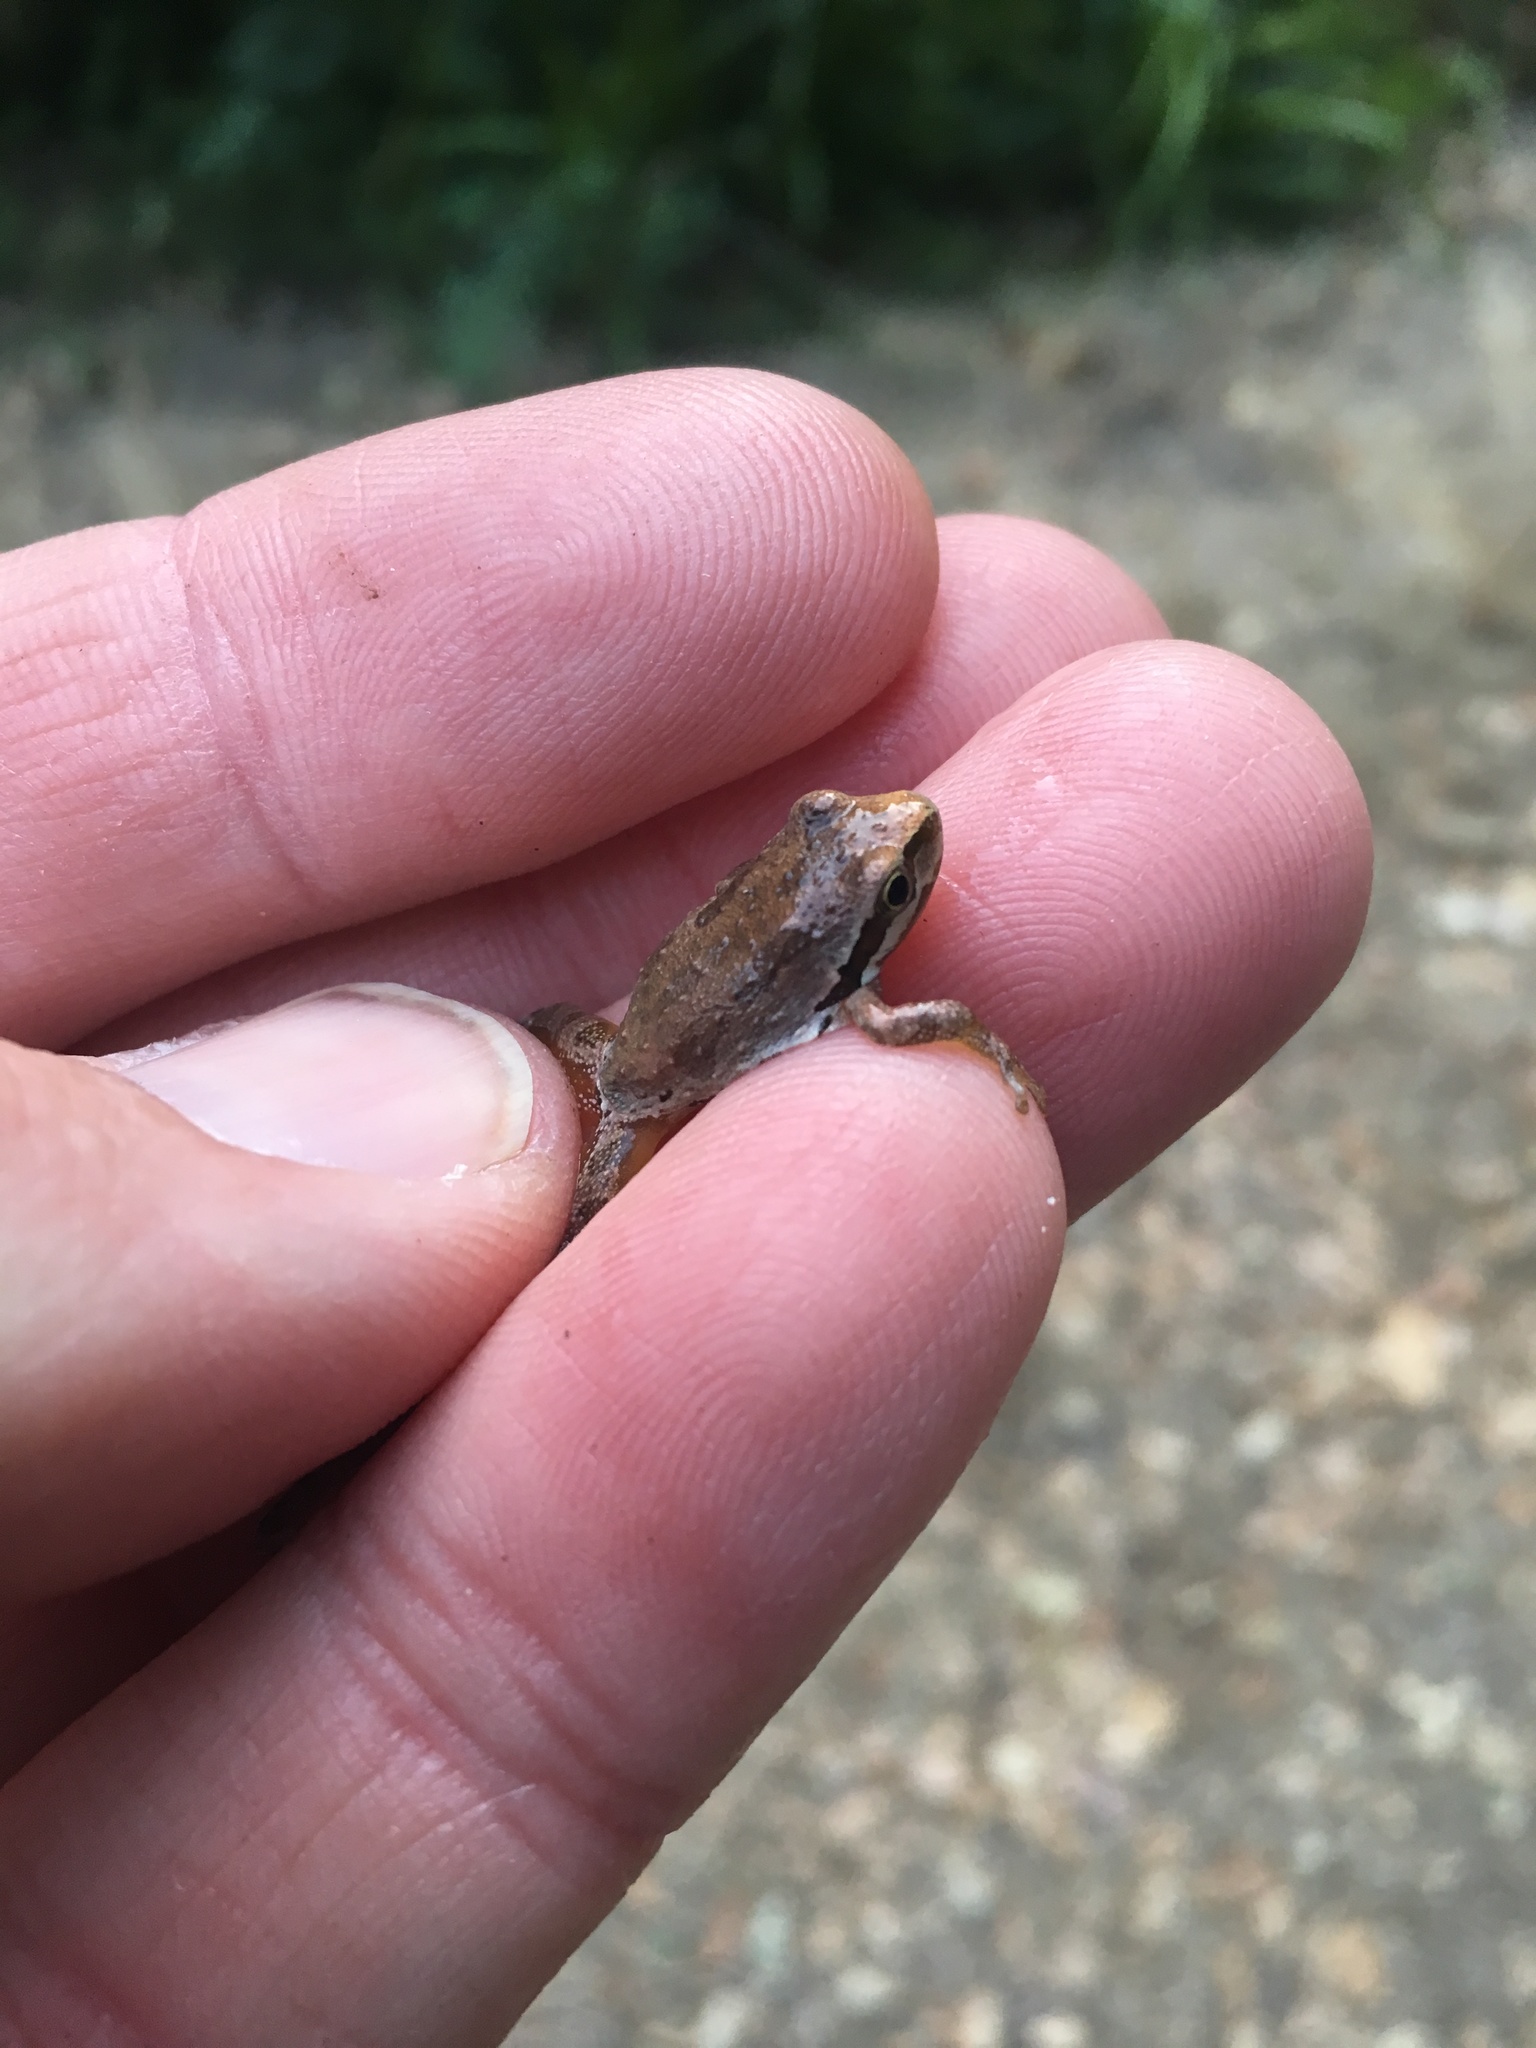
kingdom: Animalia
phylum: Chordata
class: Amphibia
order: Anura
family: Hylidae
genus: Pseudacris
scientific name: Pseudacris regilla
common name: Pacific chorus frog
